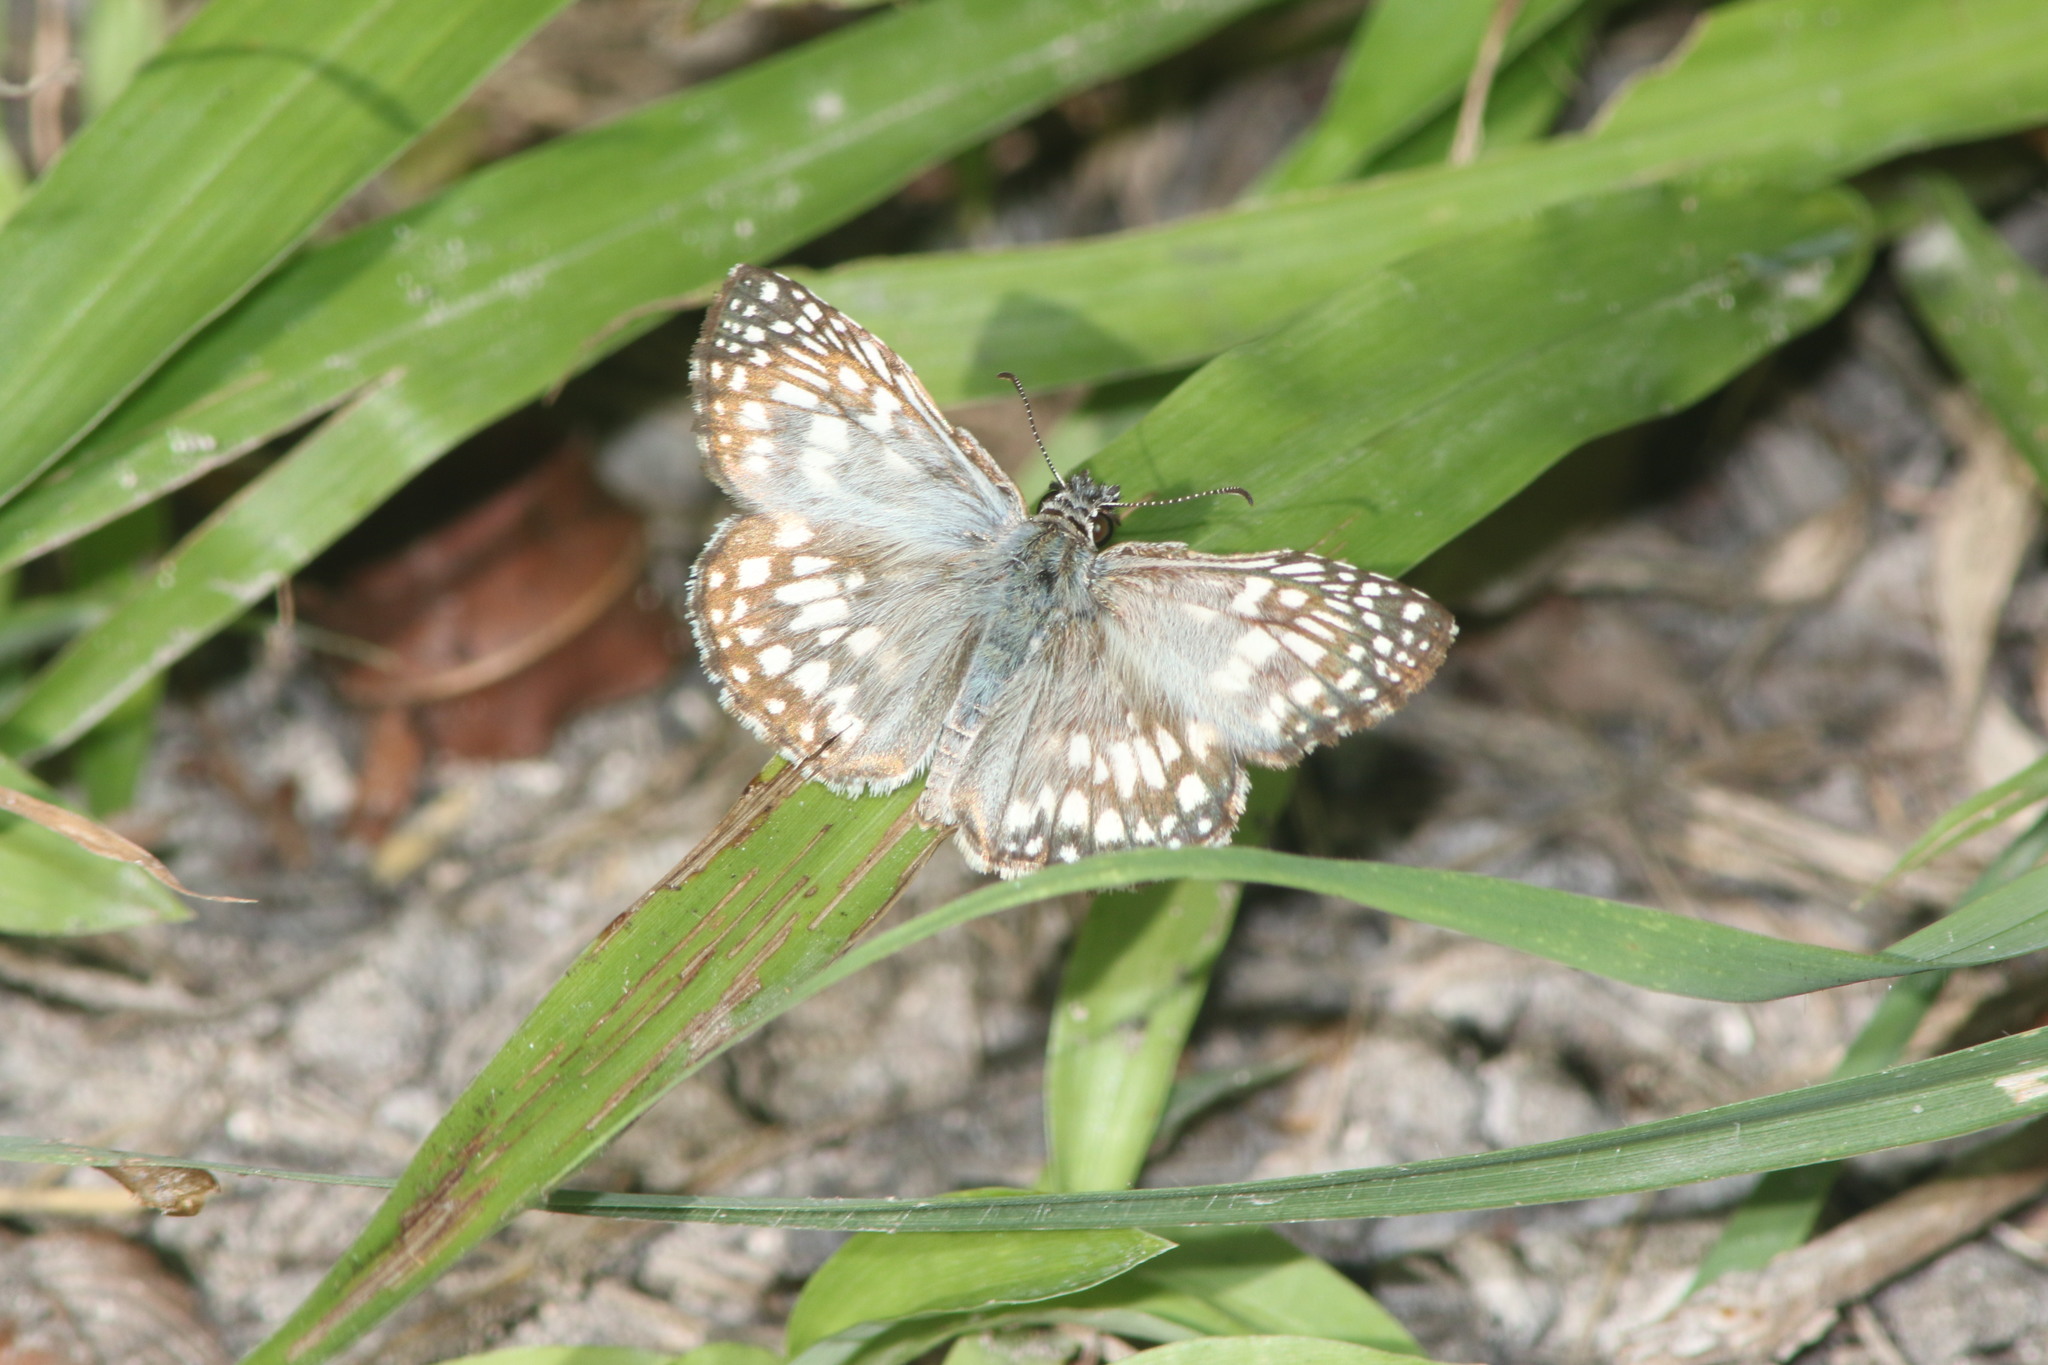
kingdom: Animalia
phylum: Arthropoda
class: Insecta
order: Lepidoptera
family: Hesperiidae
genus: Pyrgus
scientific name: Pyrgus oileus
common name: Tropical checkered-skipper
